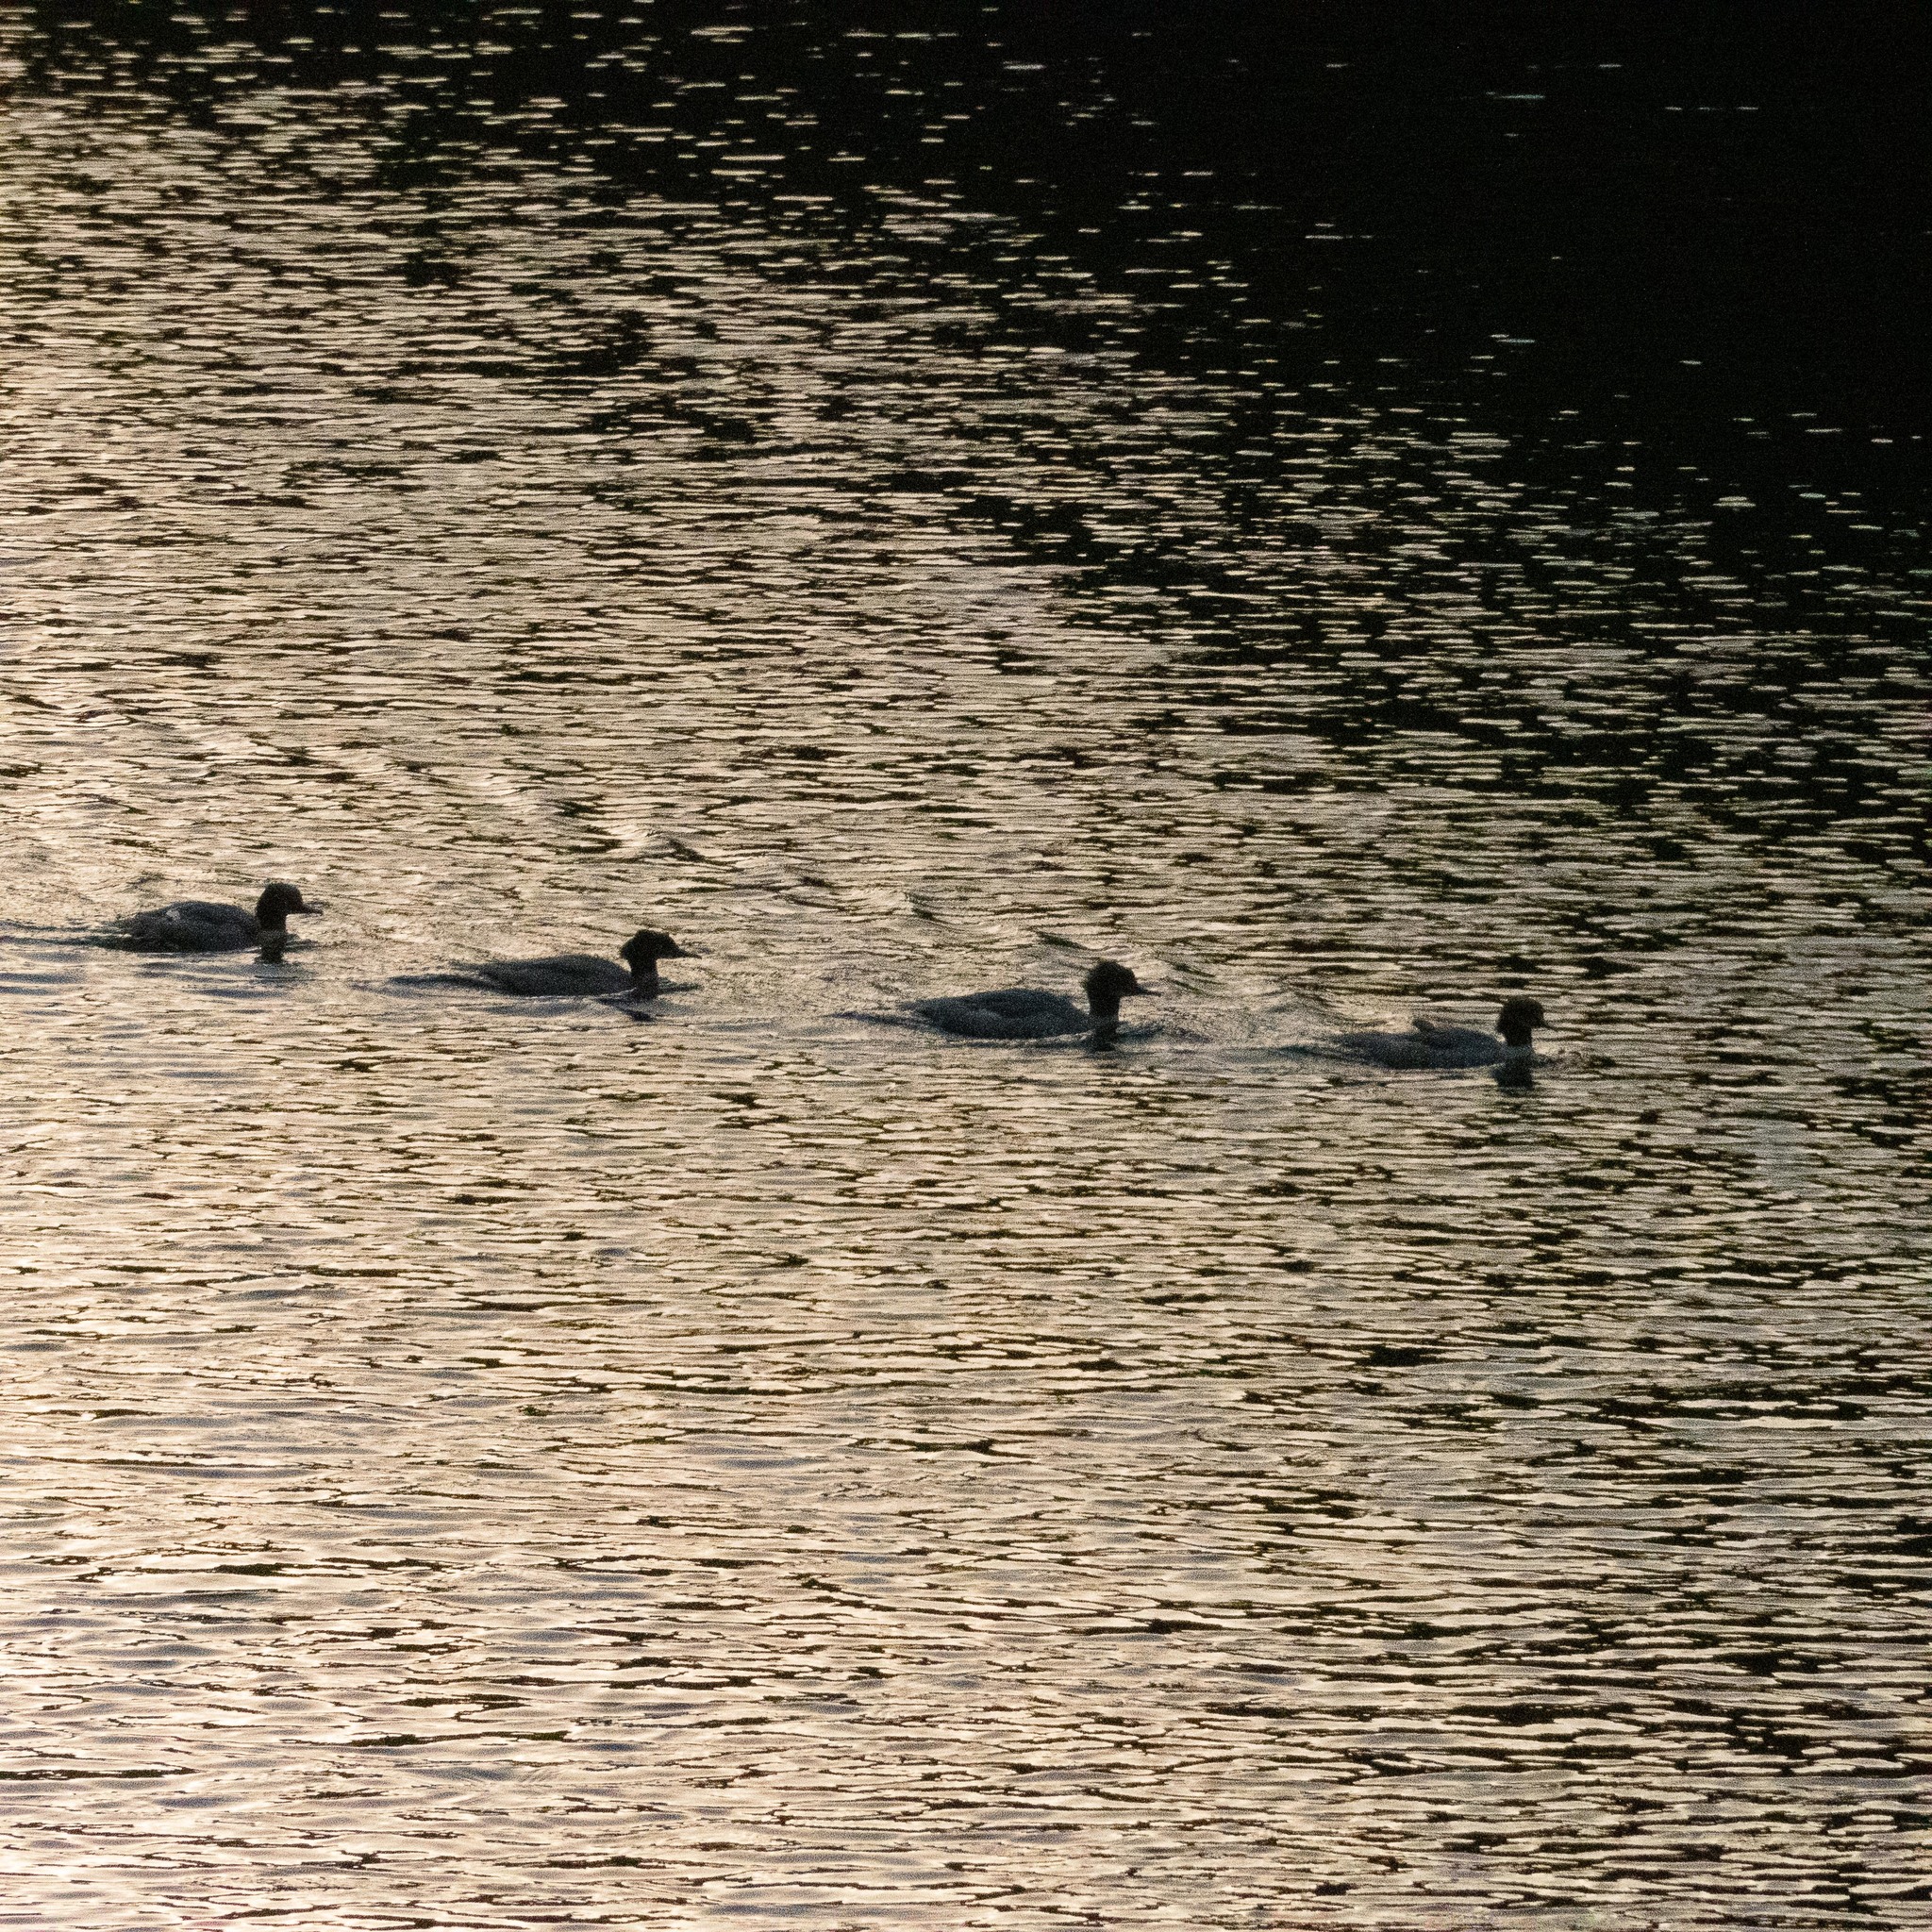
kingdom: Animalia
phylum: Chordata
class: Aves
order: Anseriformes
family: Anatidae
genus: Mergus
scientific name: Mergus merganser
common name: Common merganser
